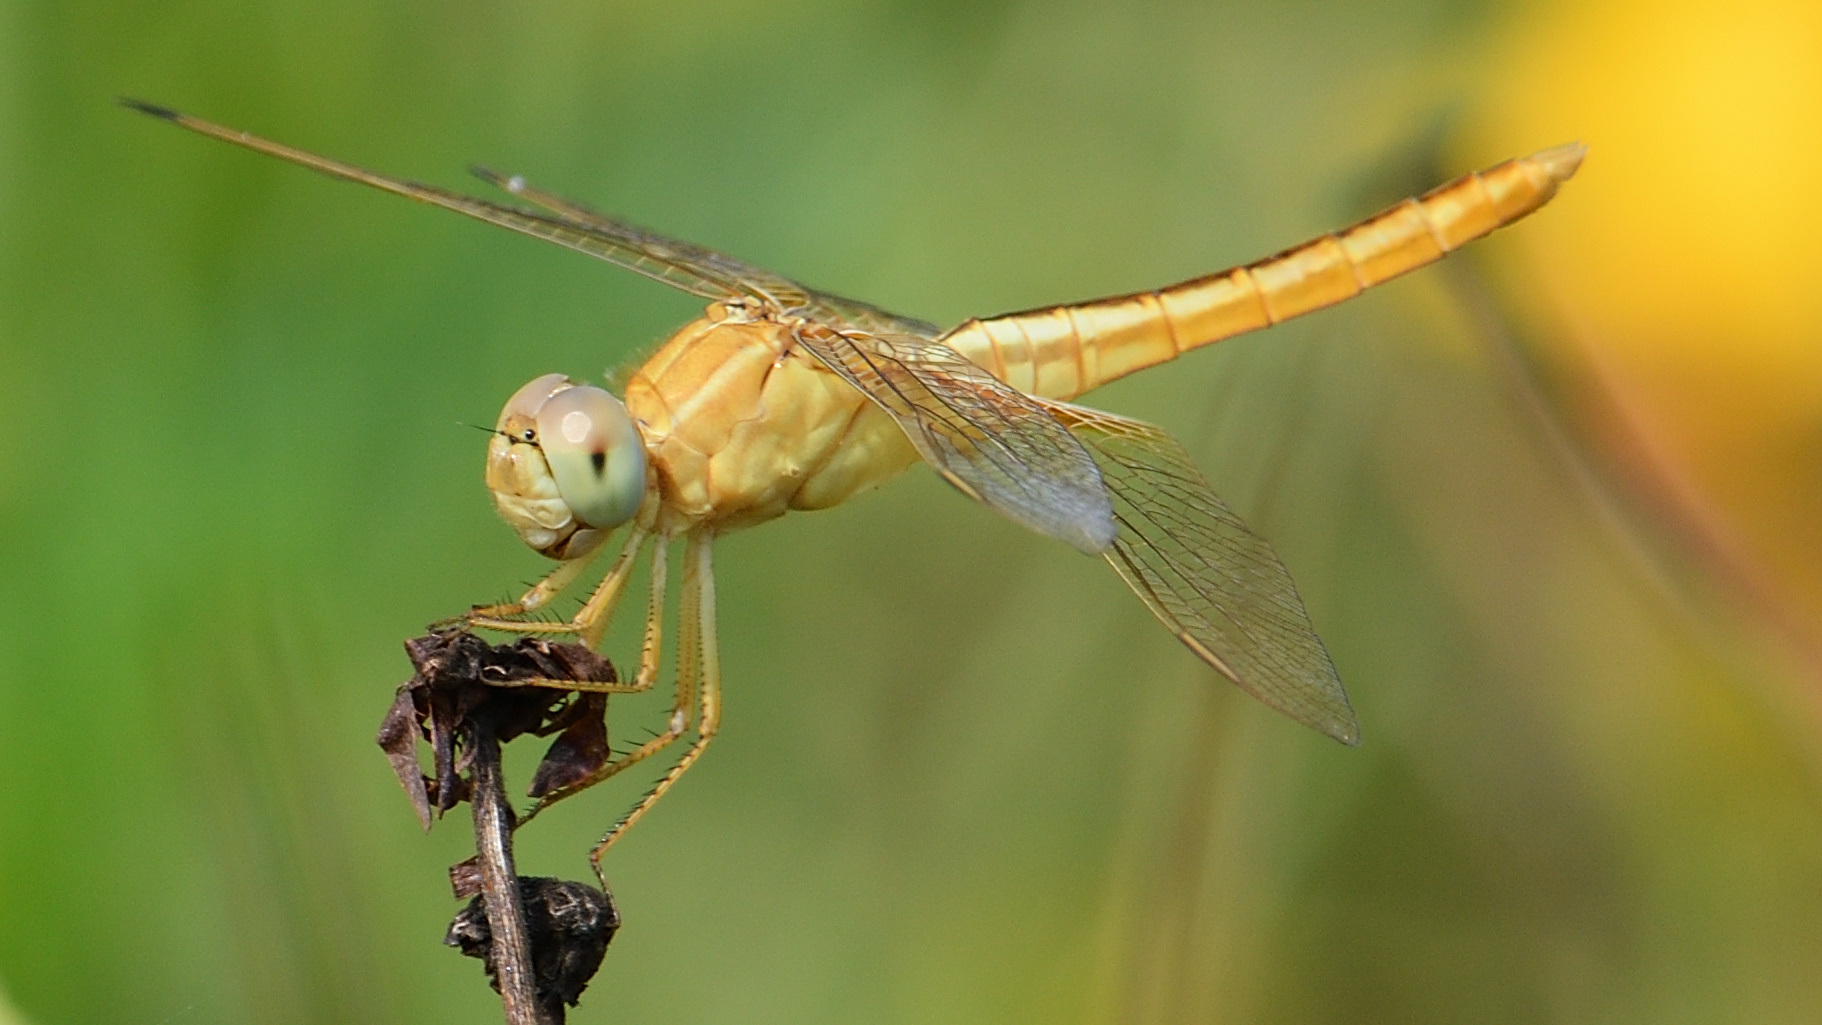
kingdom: Animalia
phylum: Arthropoda
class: Insecta
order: Odonata
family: Libellulidae
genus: Crocothemis
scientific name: Crocothemis servilia
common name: Scarlet skimmer
